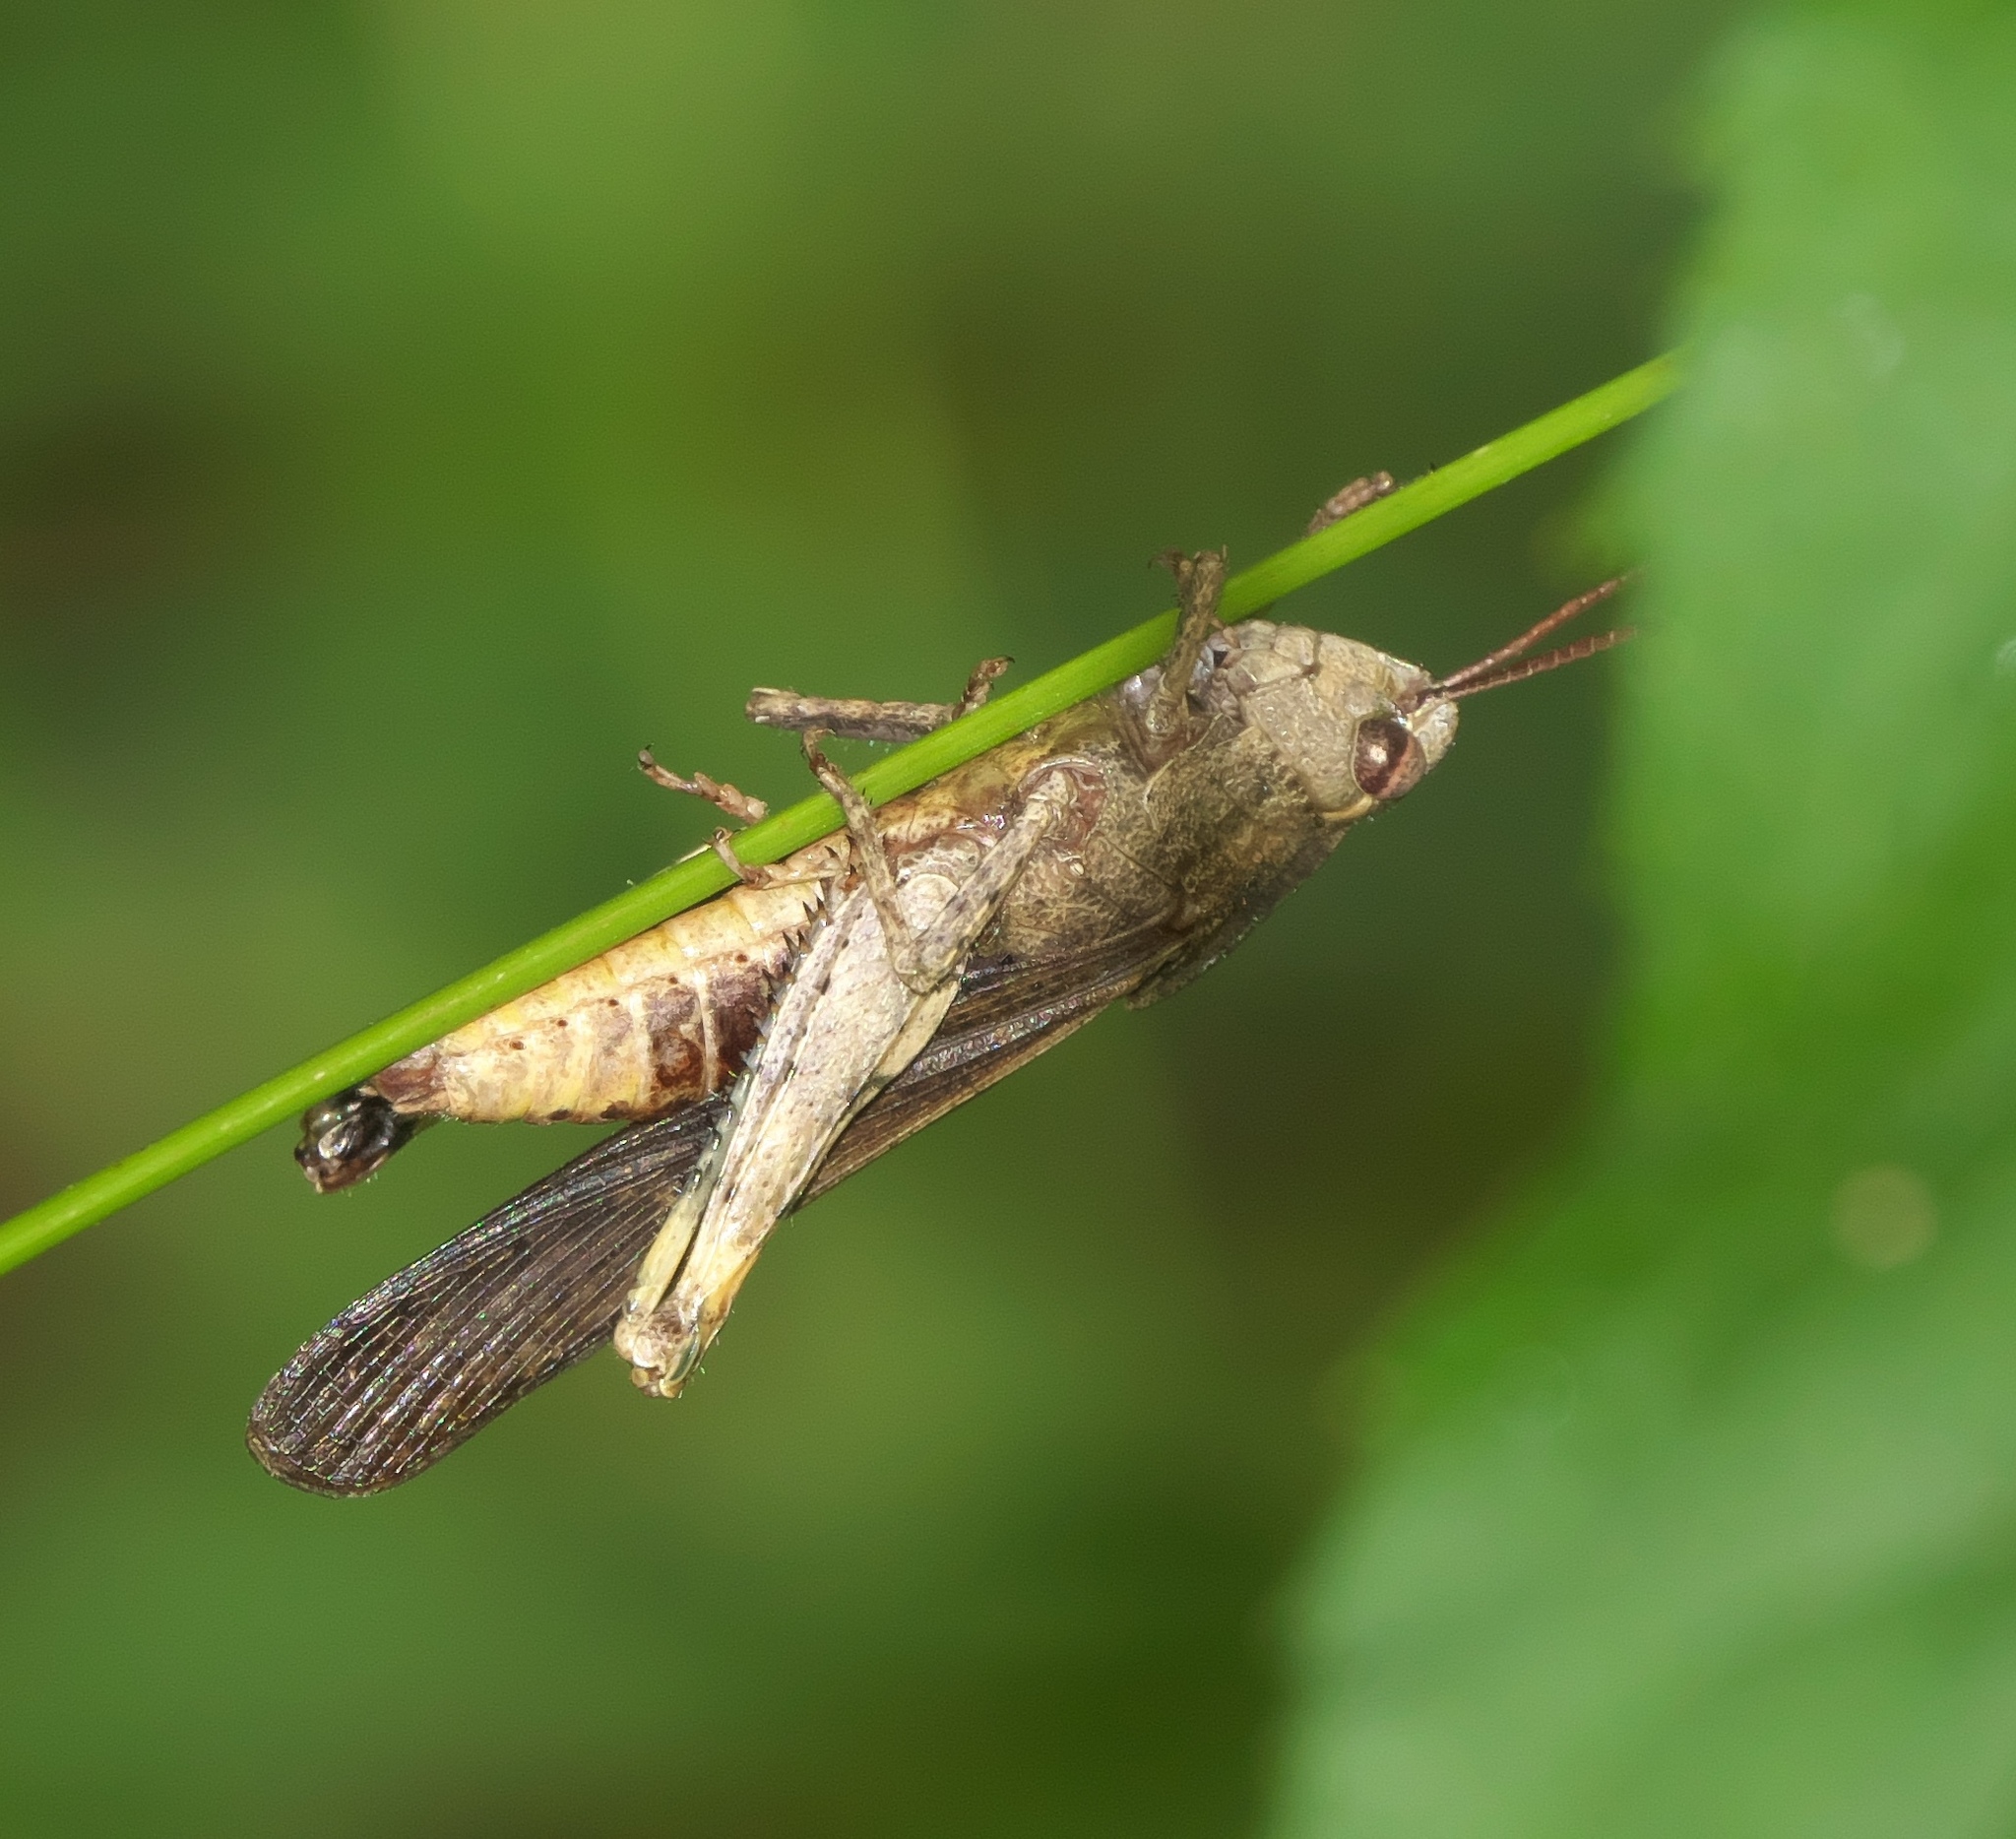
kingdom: Animalia
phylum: Arthropoda
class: Insecta
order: Orthoptera
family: Acrididae
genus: Chortophaga
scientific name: Chortophaga viridifasciata
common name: Green-striped grasshopper
